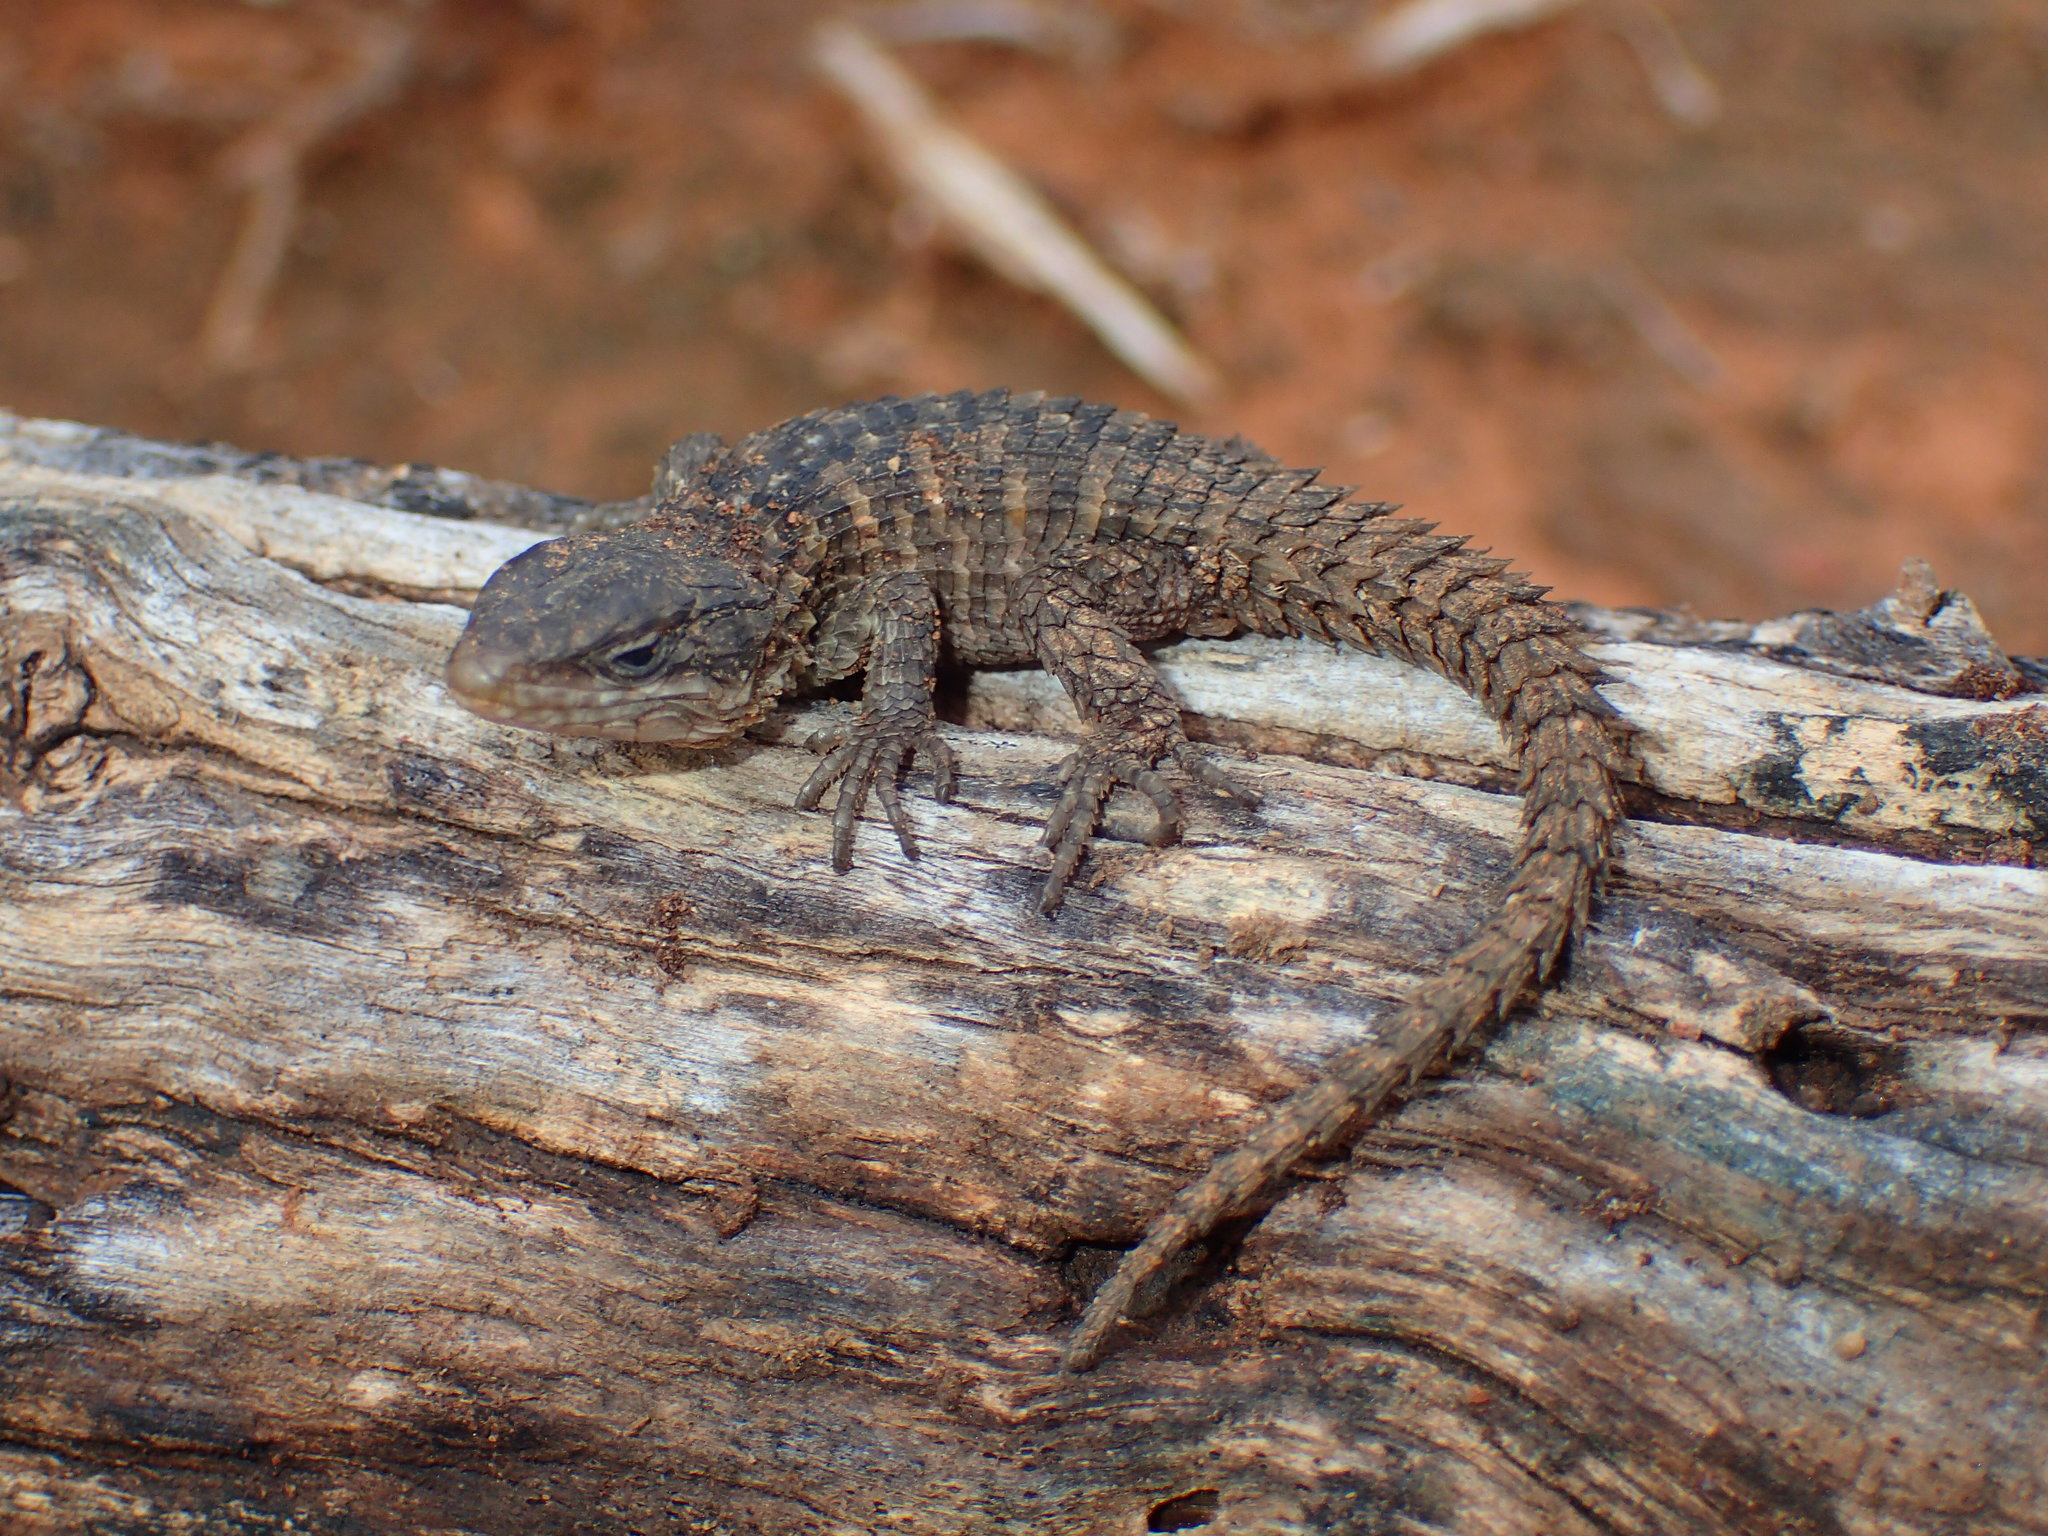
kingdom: Animalia
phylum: Chordata
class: Squamata
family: Cordylidae
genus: Cordylus
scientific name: Cordylus cordylus
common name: Cape girdled lizard
